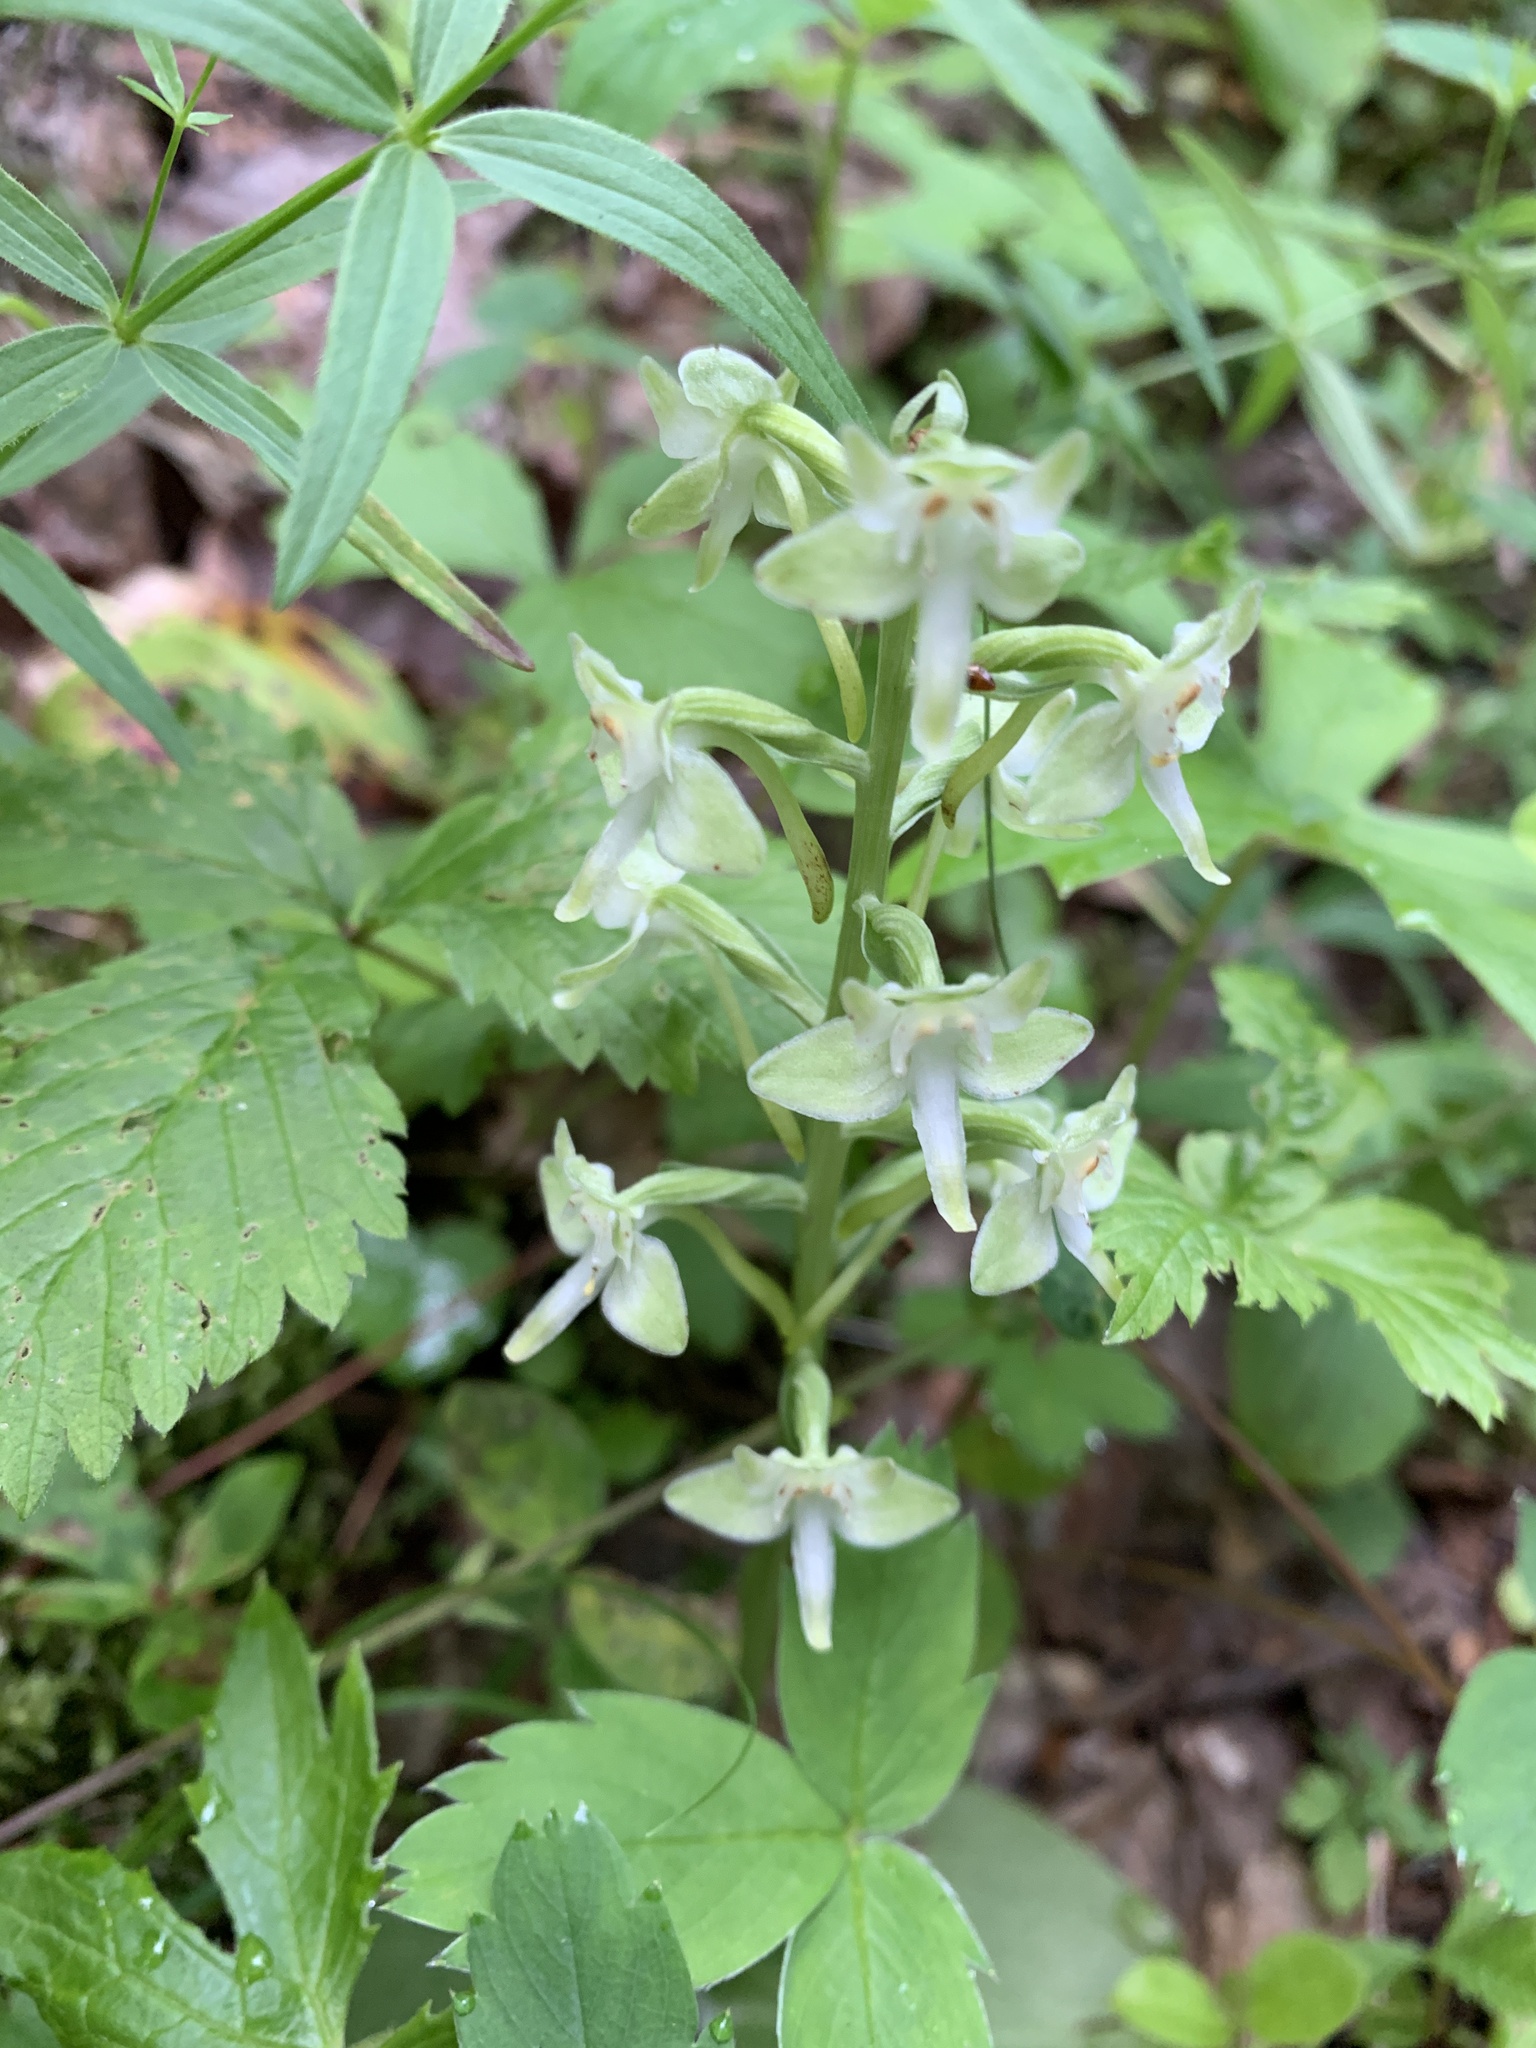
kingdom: Plantae
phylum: Tracheophyta
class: Liliopsida
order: Asparagales
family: Orchidaceae
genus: Platanthera
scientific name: Platanthera orbiculata
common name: Large round-leaved orchid
